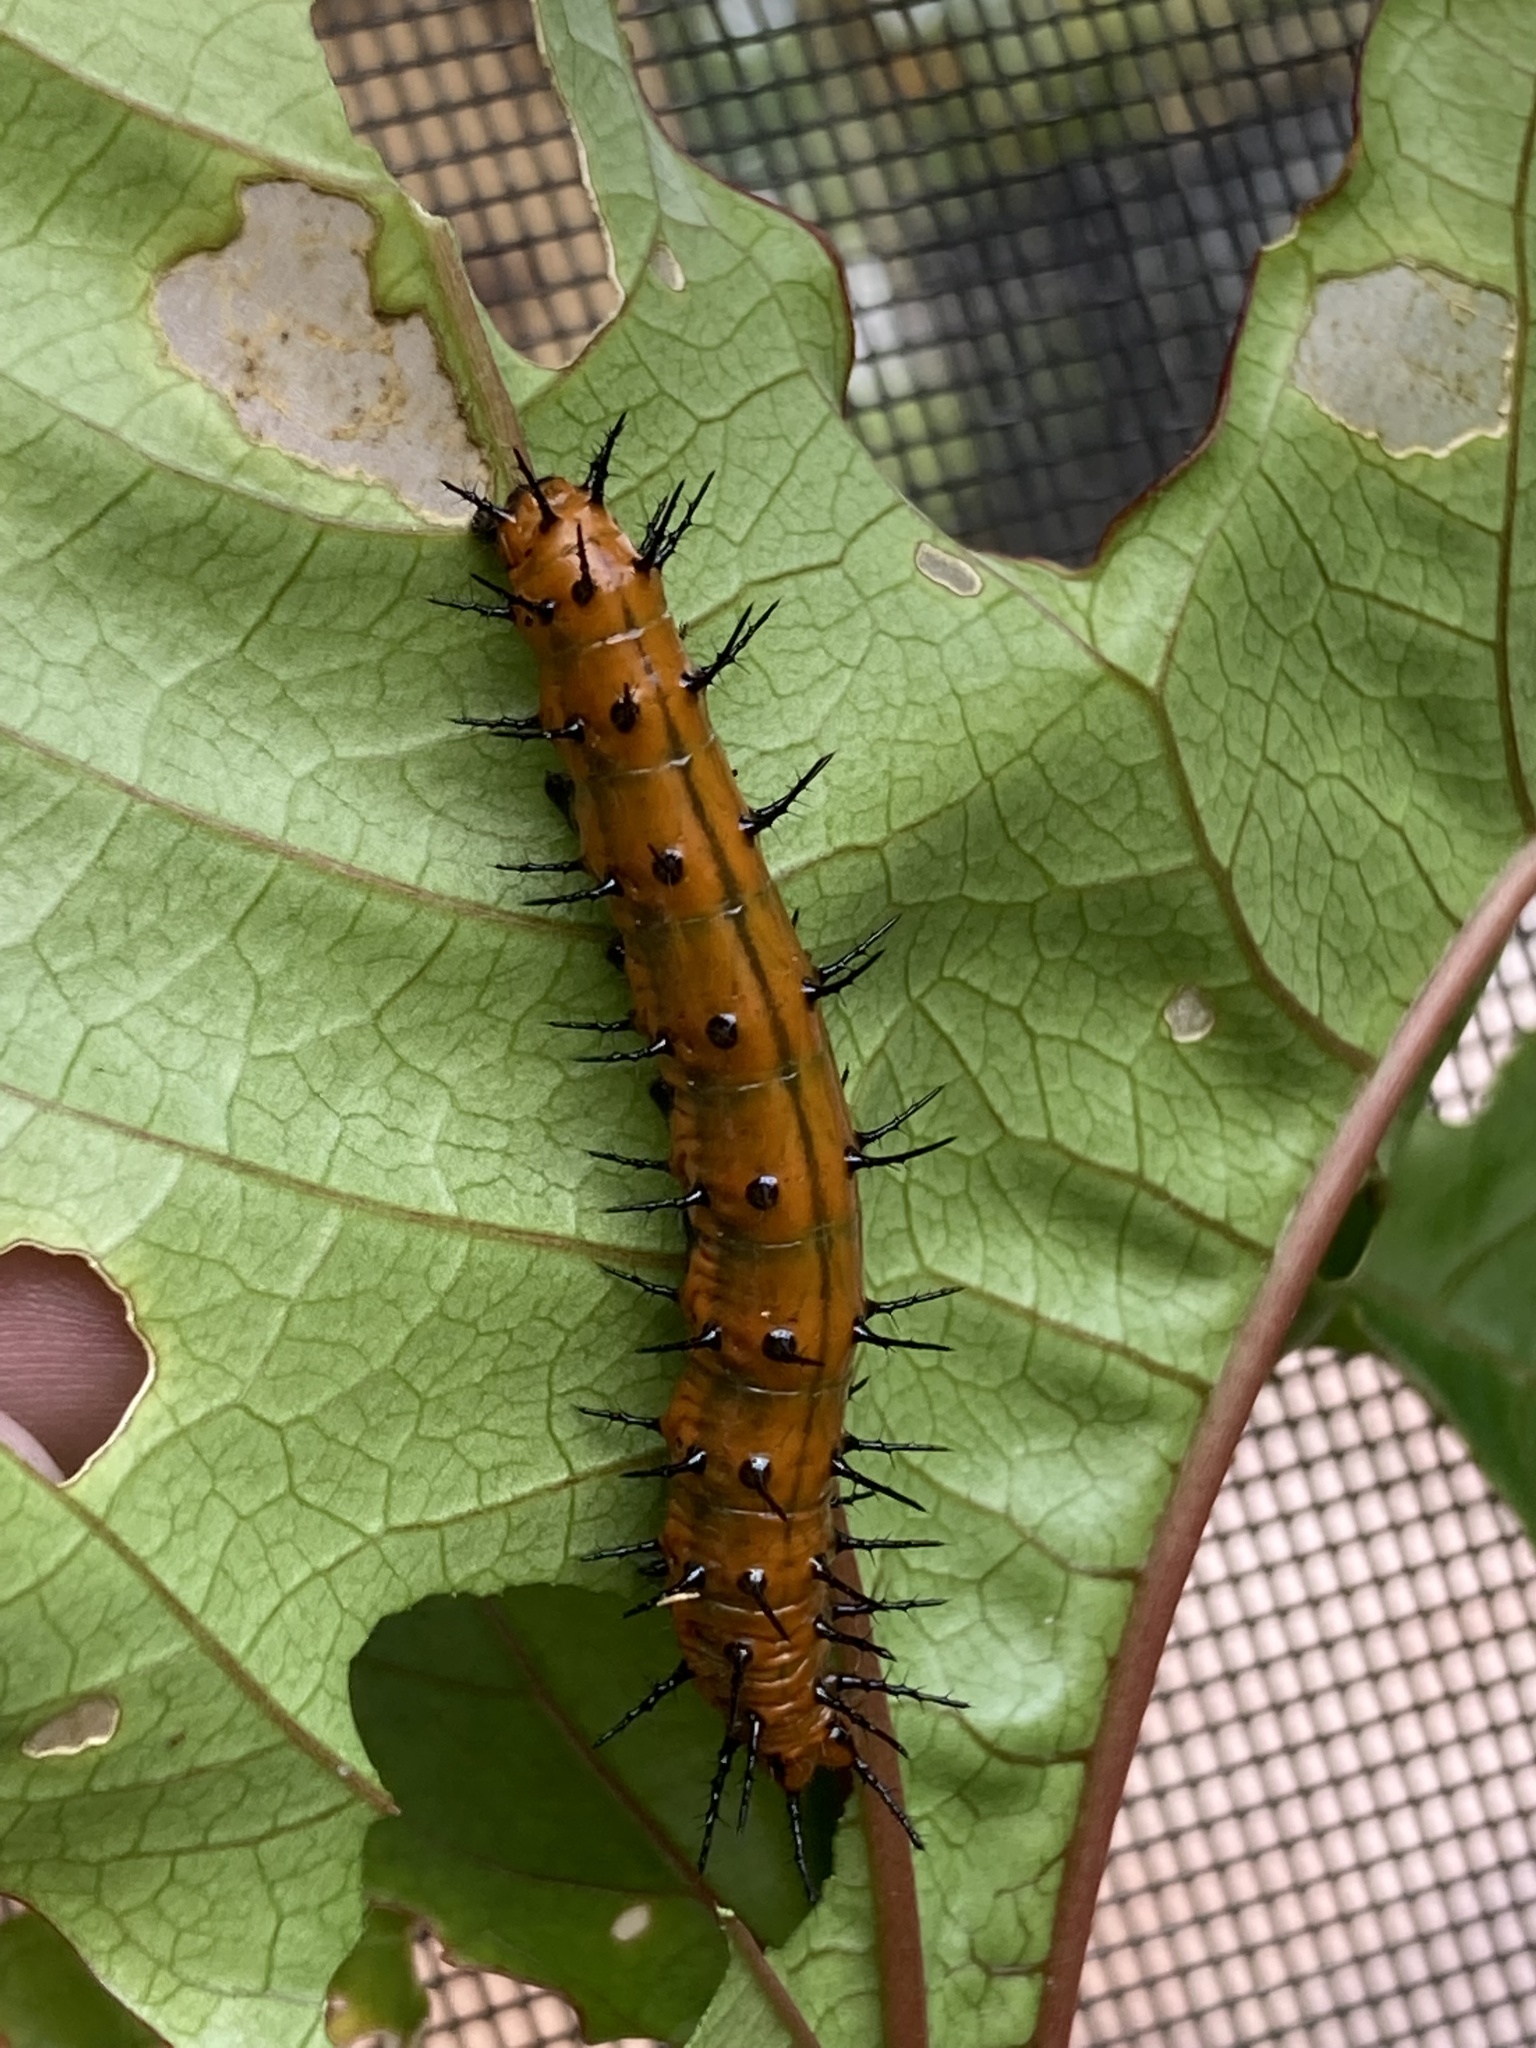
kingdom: Animalia
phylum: Arthropoda
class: Insecta
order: Lepidoptera
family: Nymphalidae
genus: Dione
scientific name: Dione vanillae
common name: Gulf fritillary
